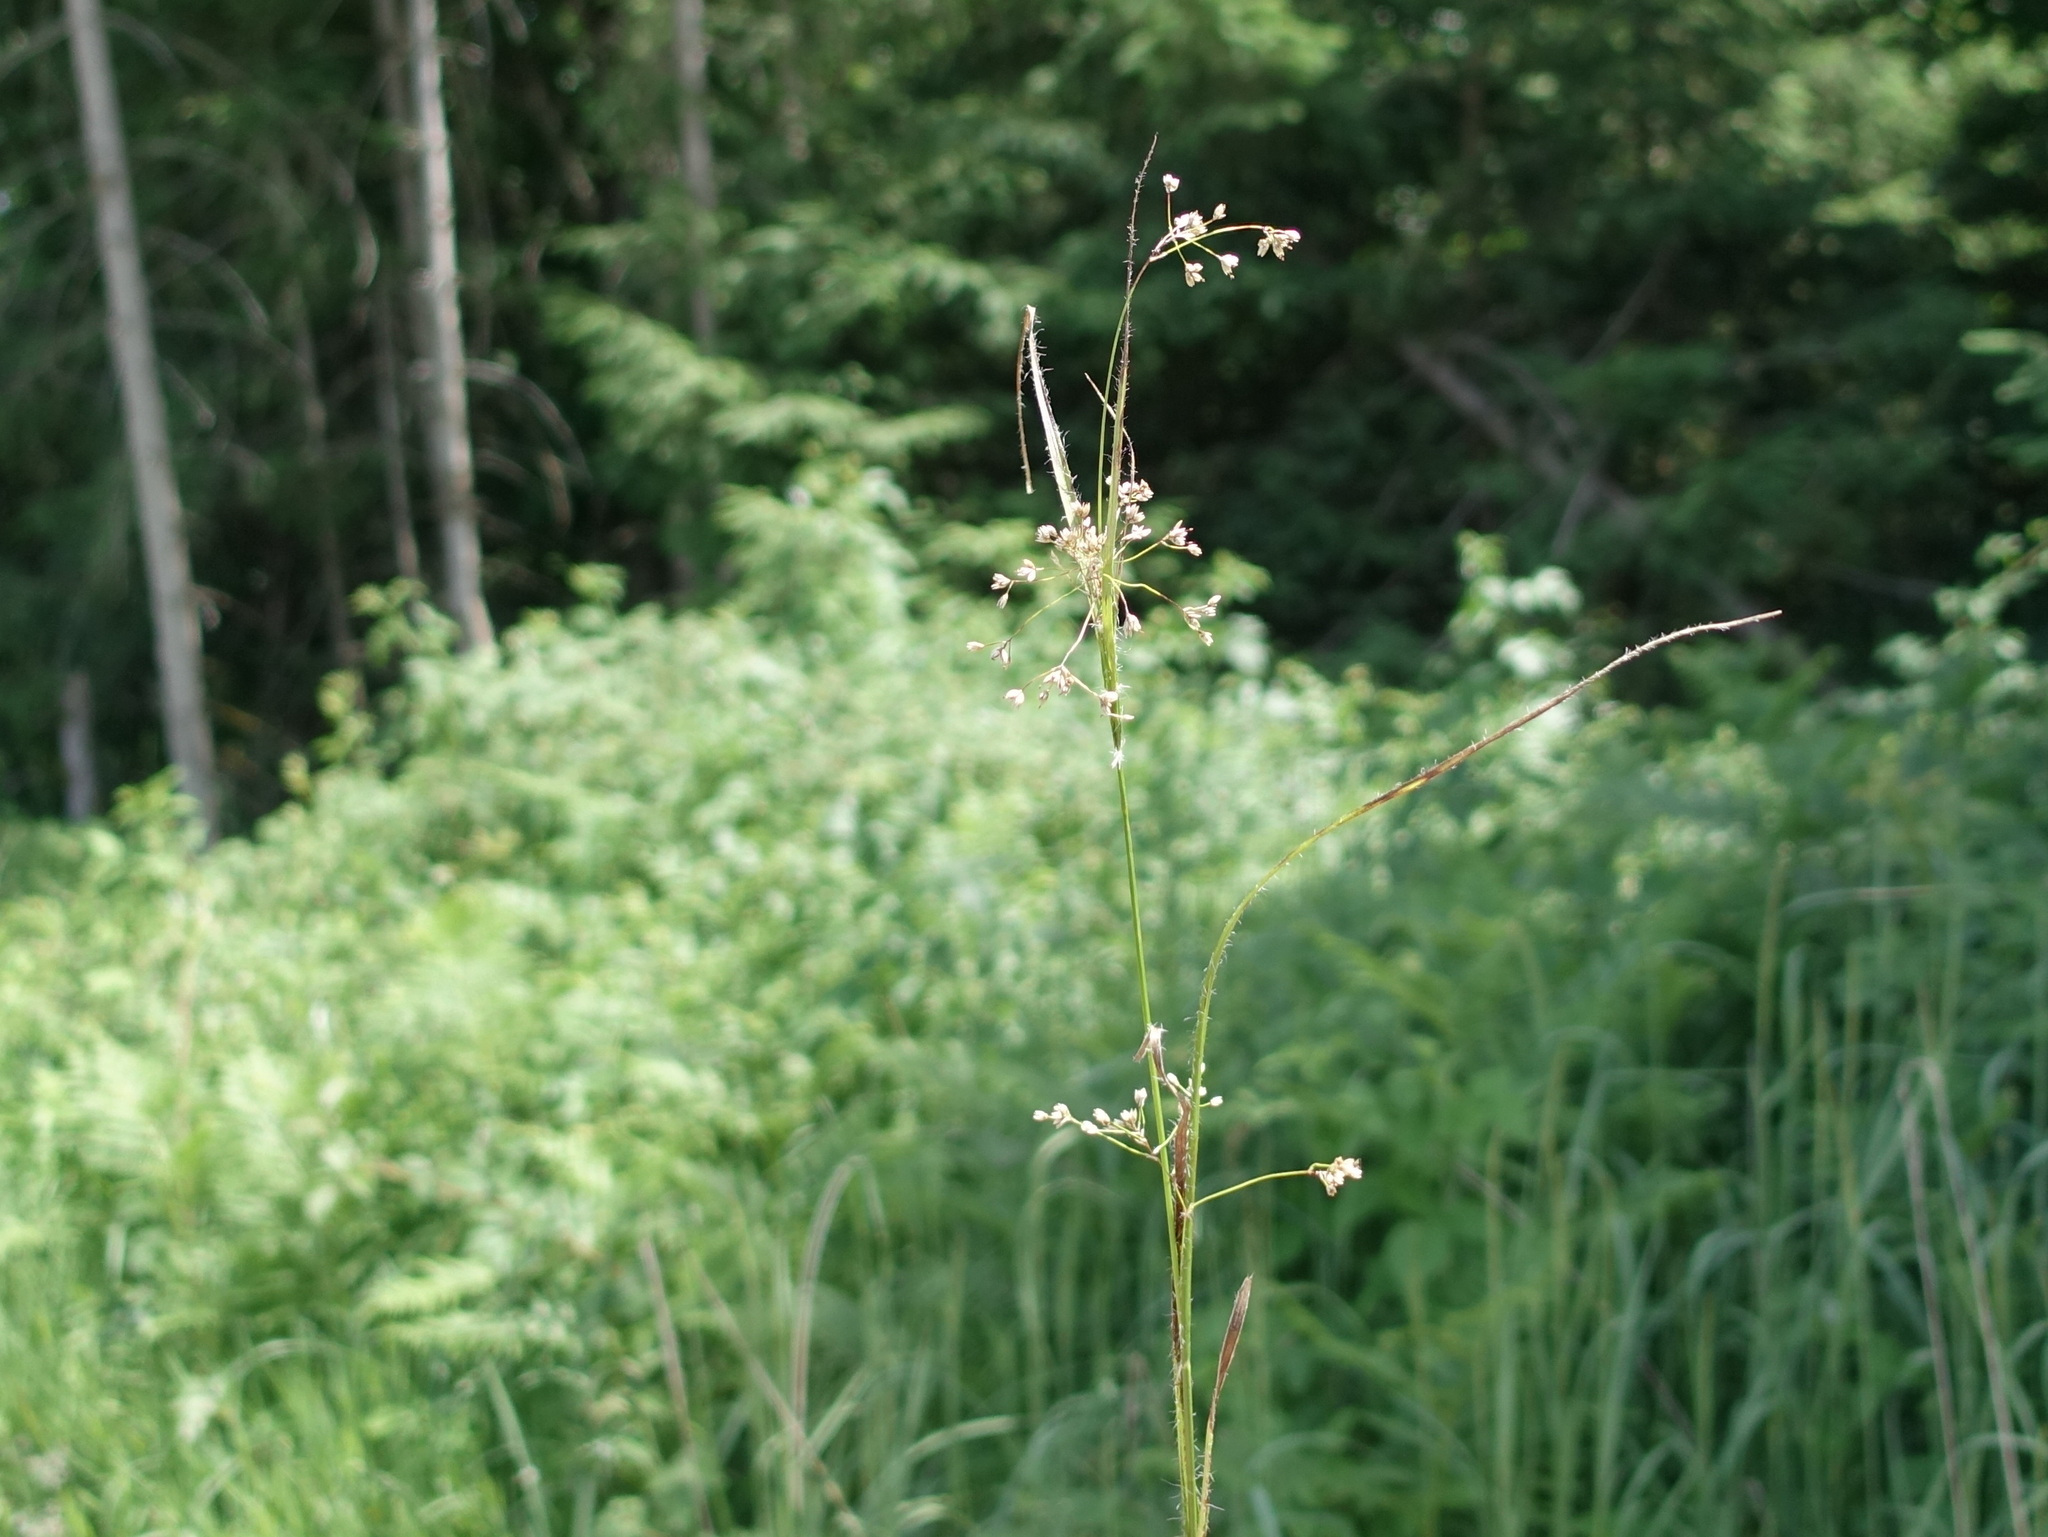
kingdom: Plantae
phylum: Tracheophyta
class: Liliopsida
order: Poales
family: Juncaceae
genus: Luzula
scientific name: Luzula luzuloides
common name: White wood-rush
